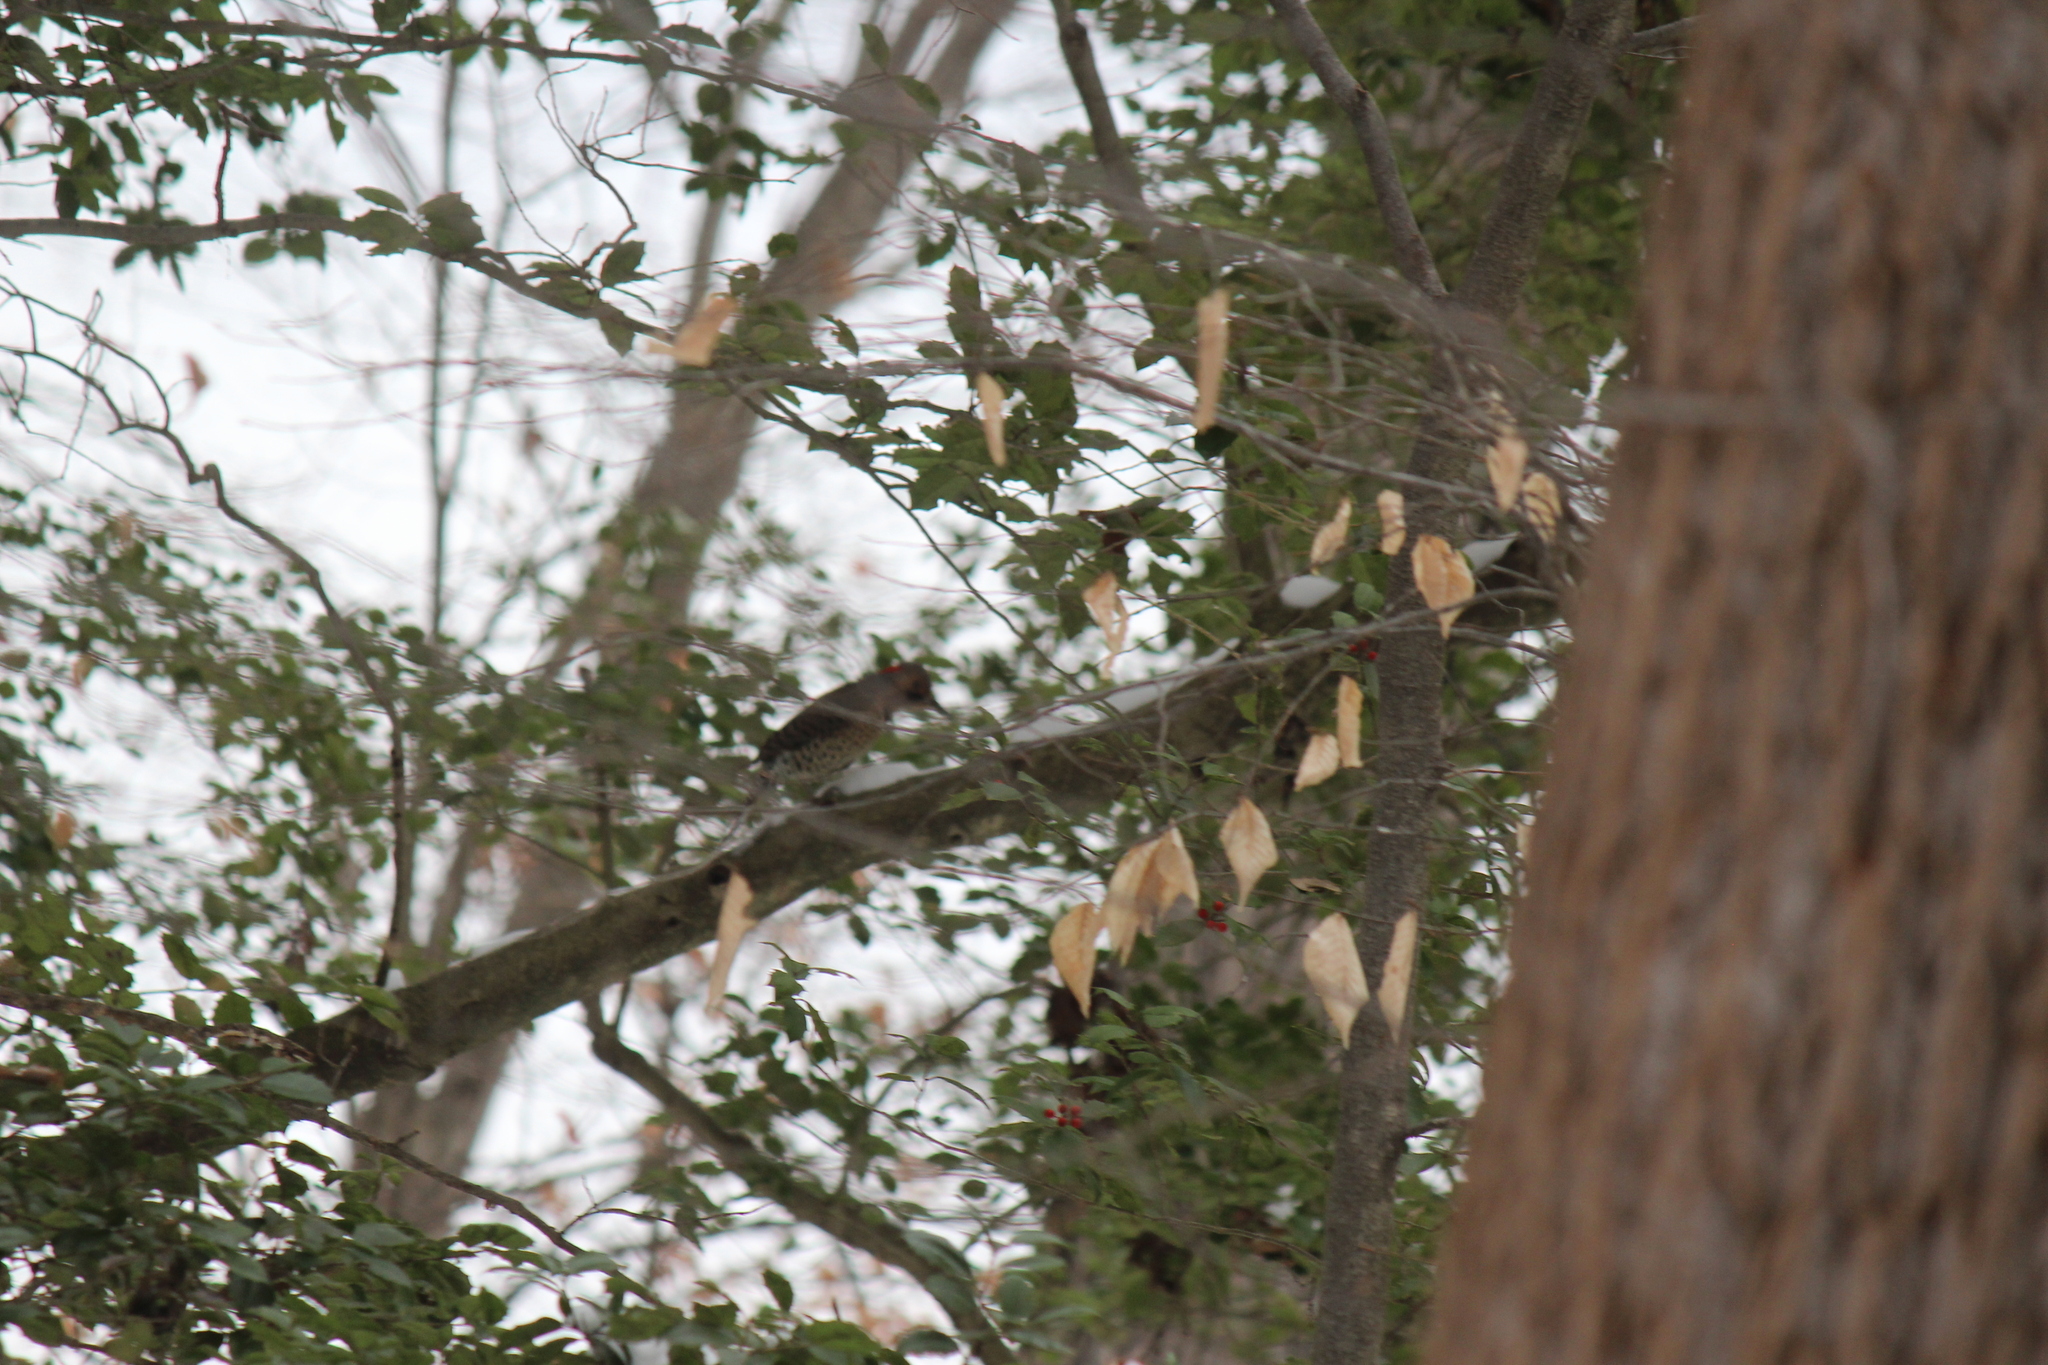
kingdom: Animalia
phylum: Chordata
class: Aves
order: Piciformes
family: Picidae
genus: Colaptes
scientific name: Colaptes auratus
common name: Northern flicker
